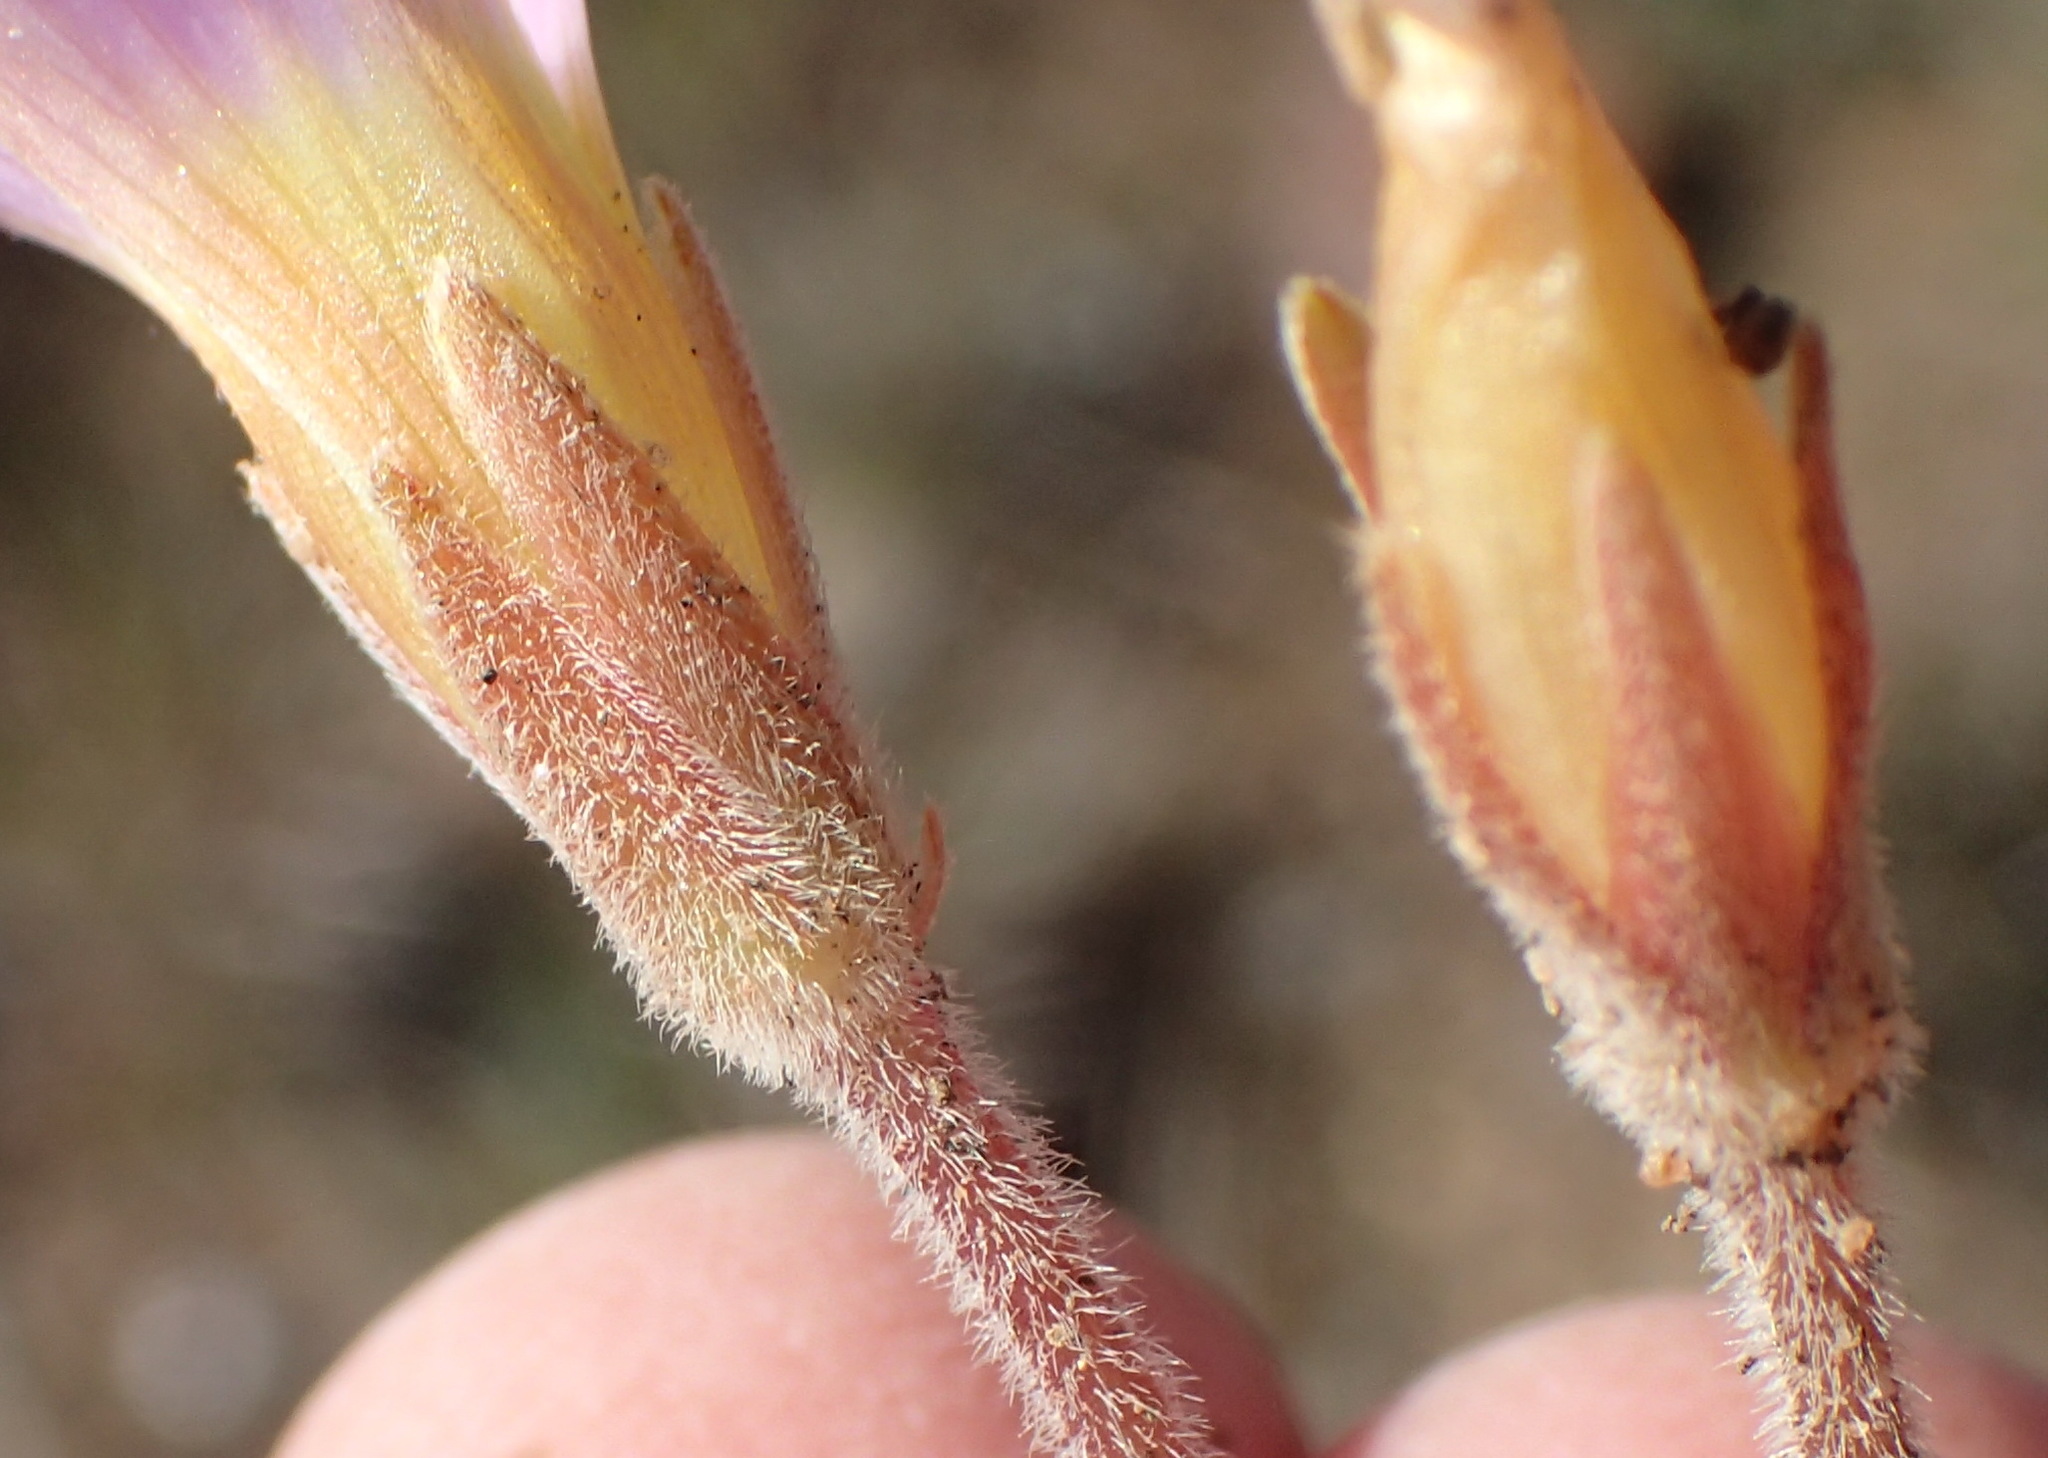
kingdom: Plantae
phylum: Tracheophyta
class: Magnoliopsida
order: Oxalidales
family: Oxalidaceae
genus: Oxalis
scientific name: Oxalis algoensis
